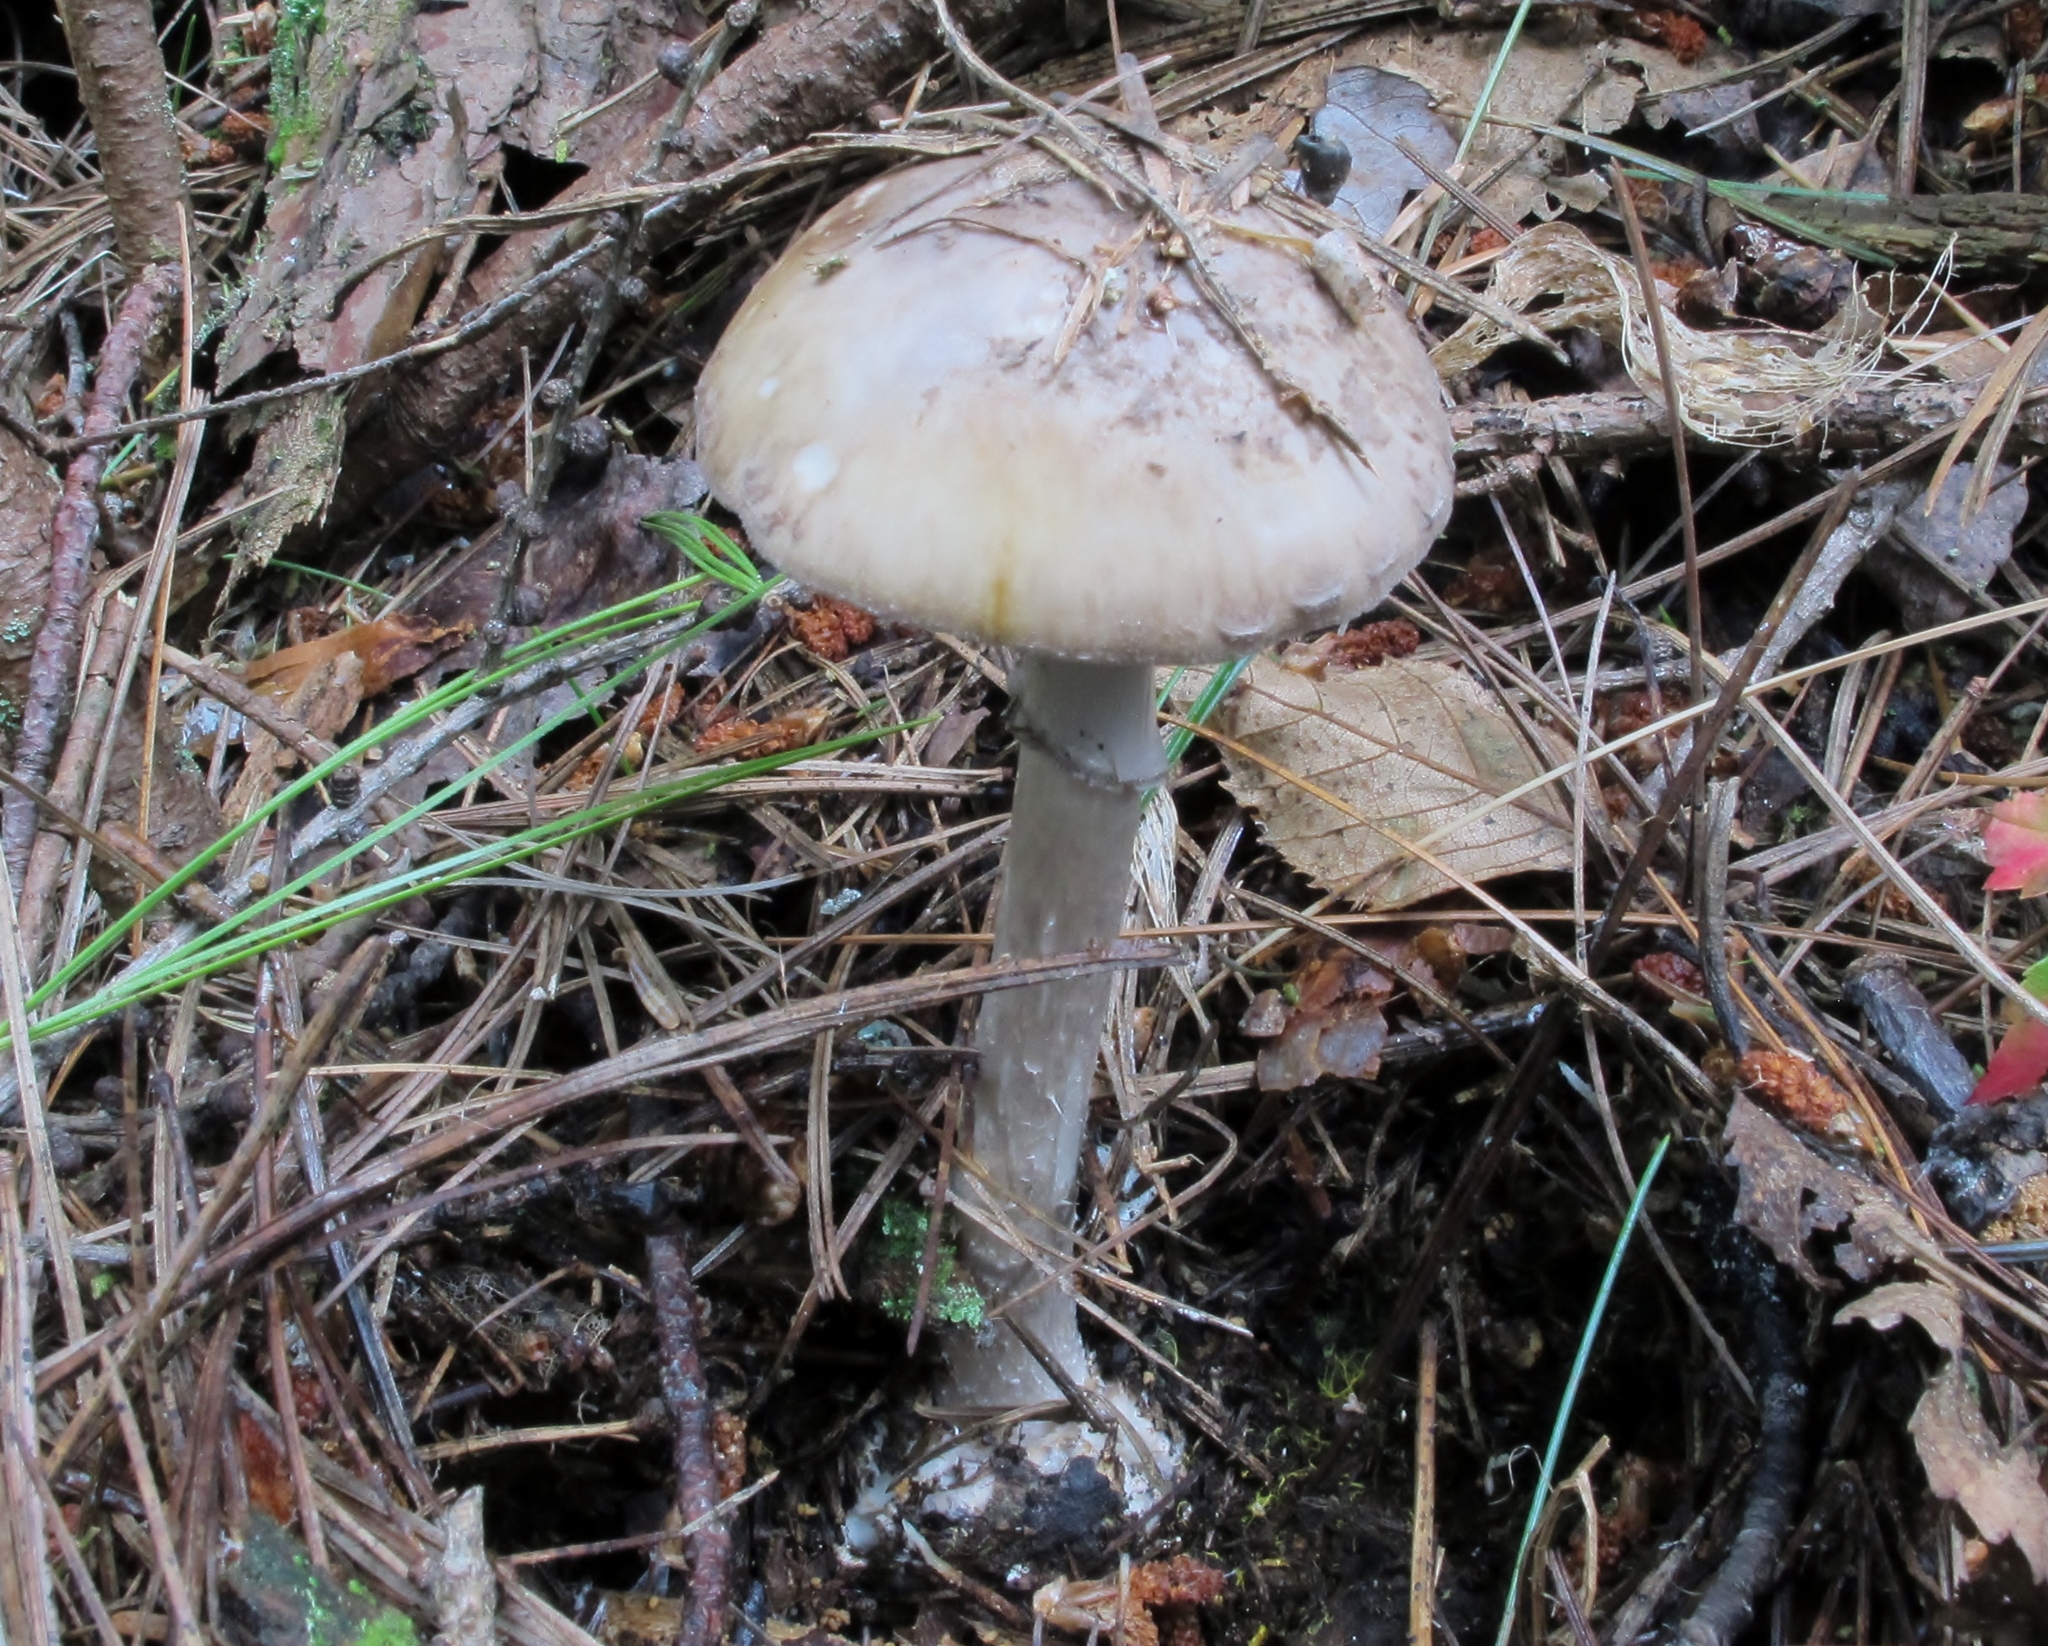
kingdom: Fungi
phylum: Basidiomycota
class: Agaricomycetes
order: Agaricales
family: Amanitaceae
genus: Amanita
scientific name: Amanita porphyria
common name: Grey veiled amanita
